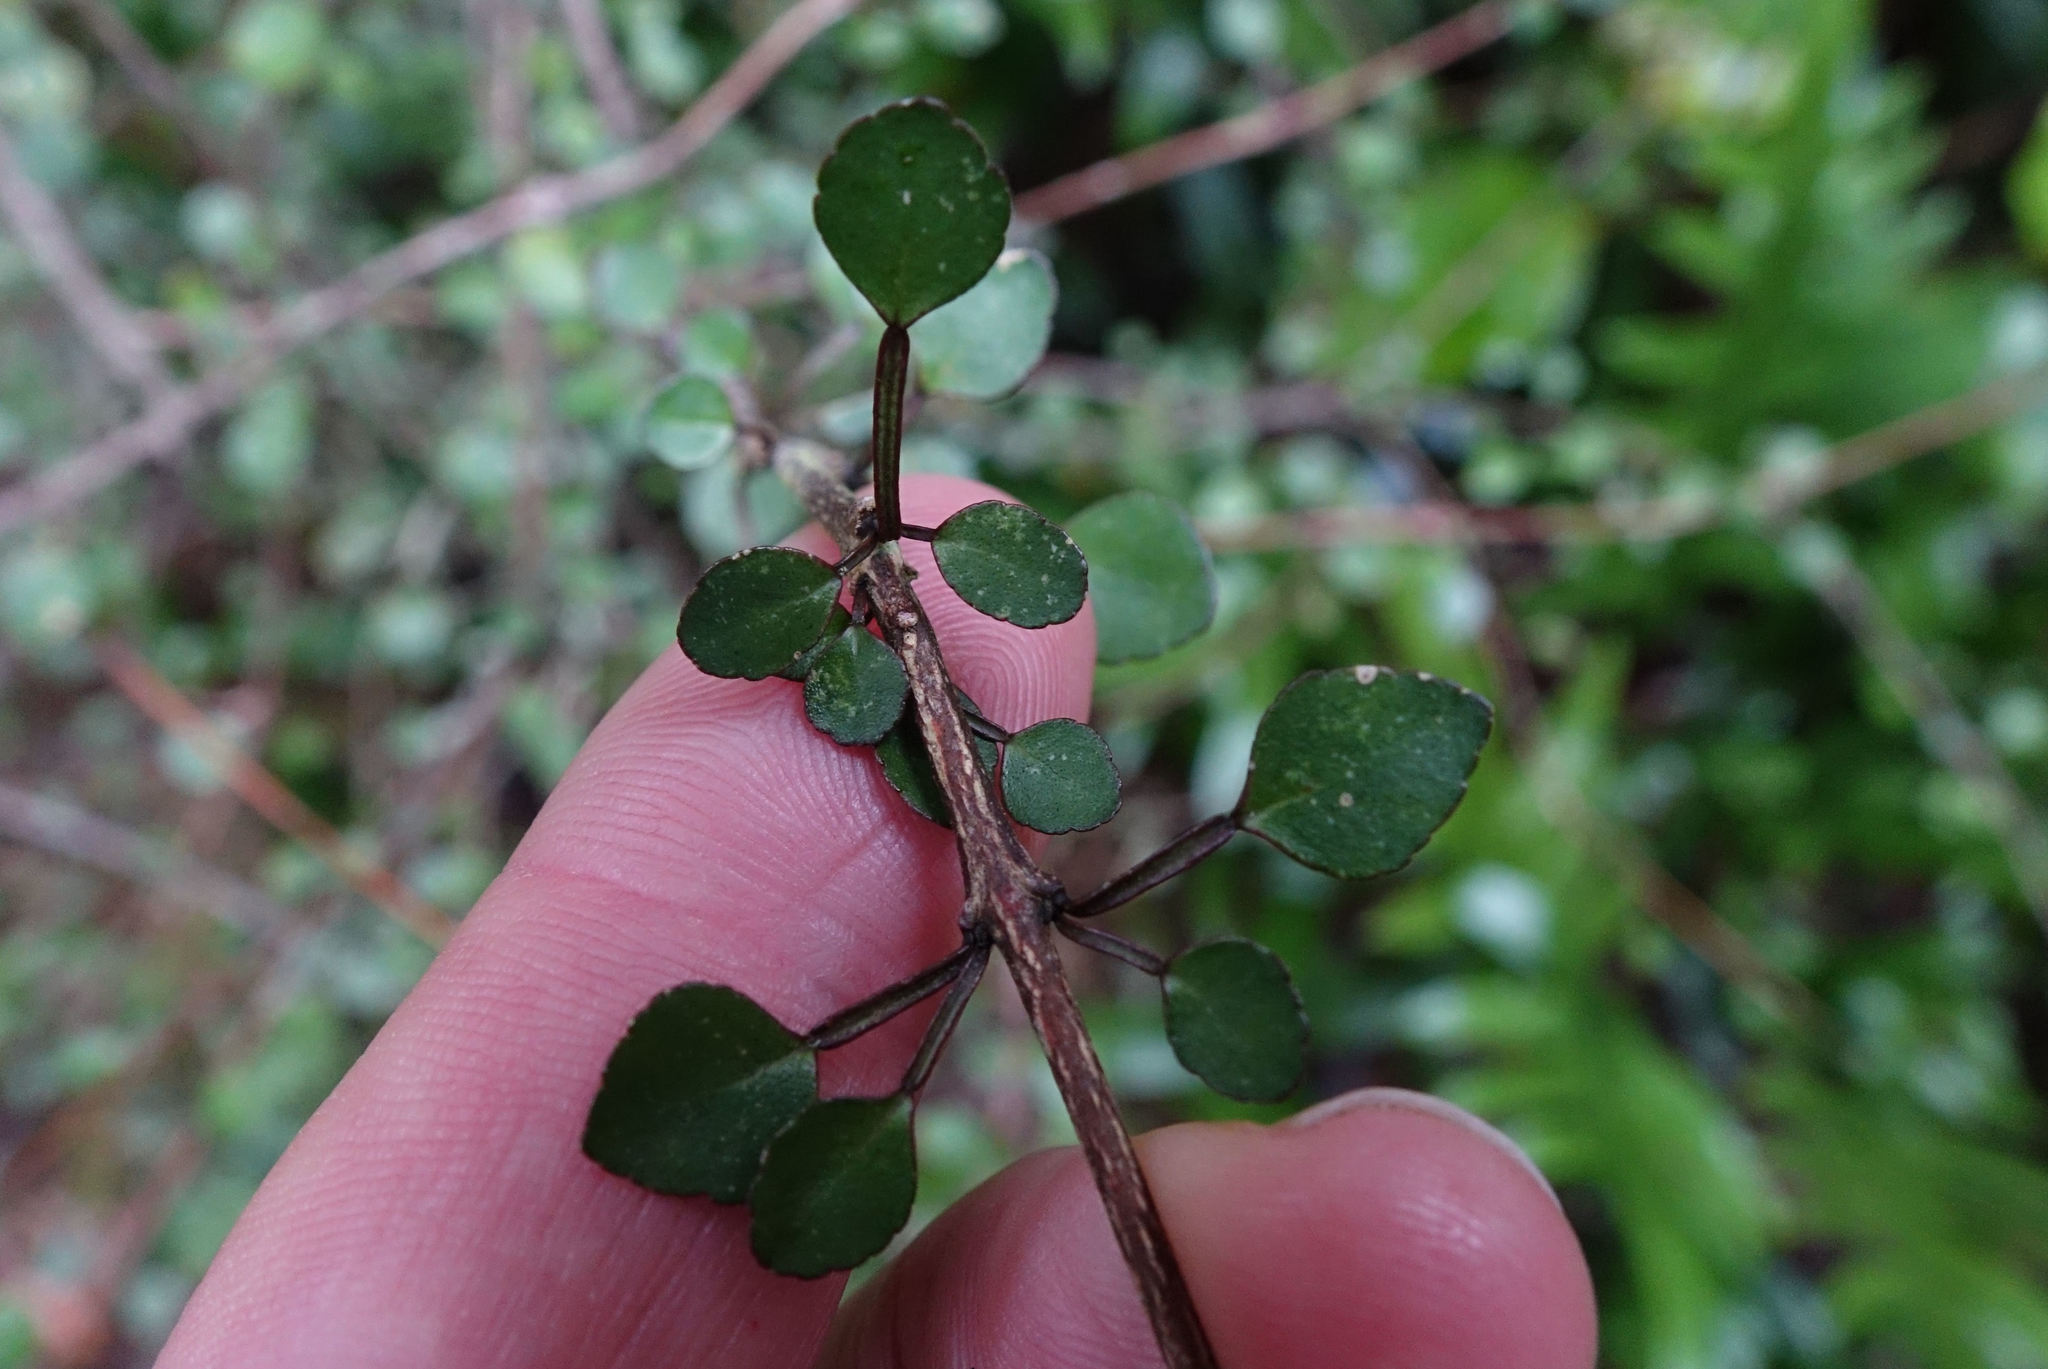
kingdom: Plantae
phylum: Tracheophyta
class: Magnoliopsida
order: Sapindales
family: Rutaceae
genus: Melicope
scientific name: Melicope simplex
